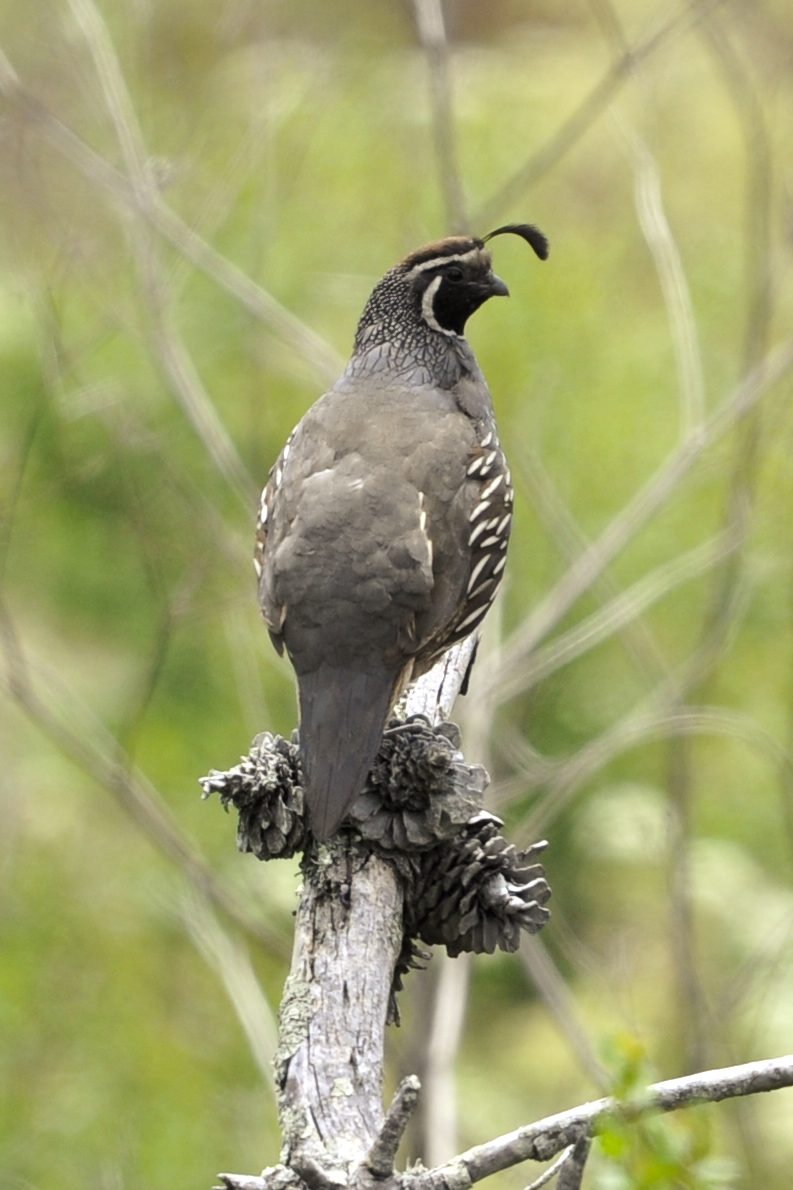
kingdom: Animalia
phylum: Chordata
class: Aves
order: Galliformes
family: Odontophoridae
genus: Callipepla
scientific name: Callipepla californica
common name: California quail
